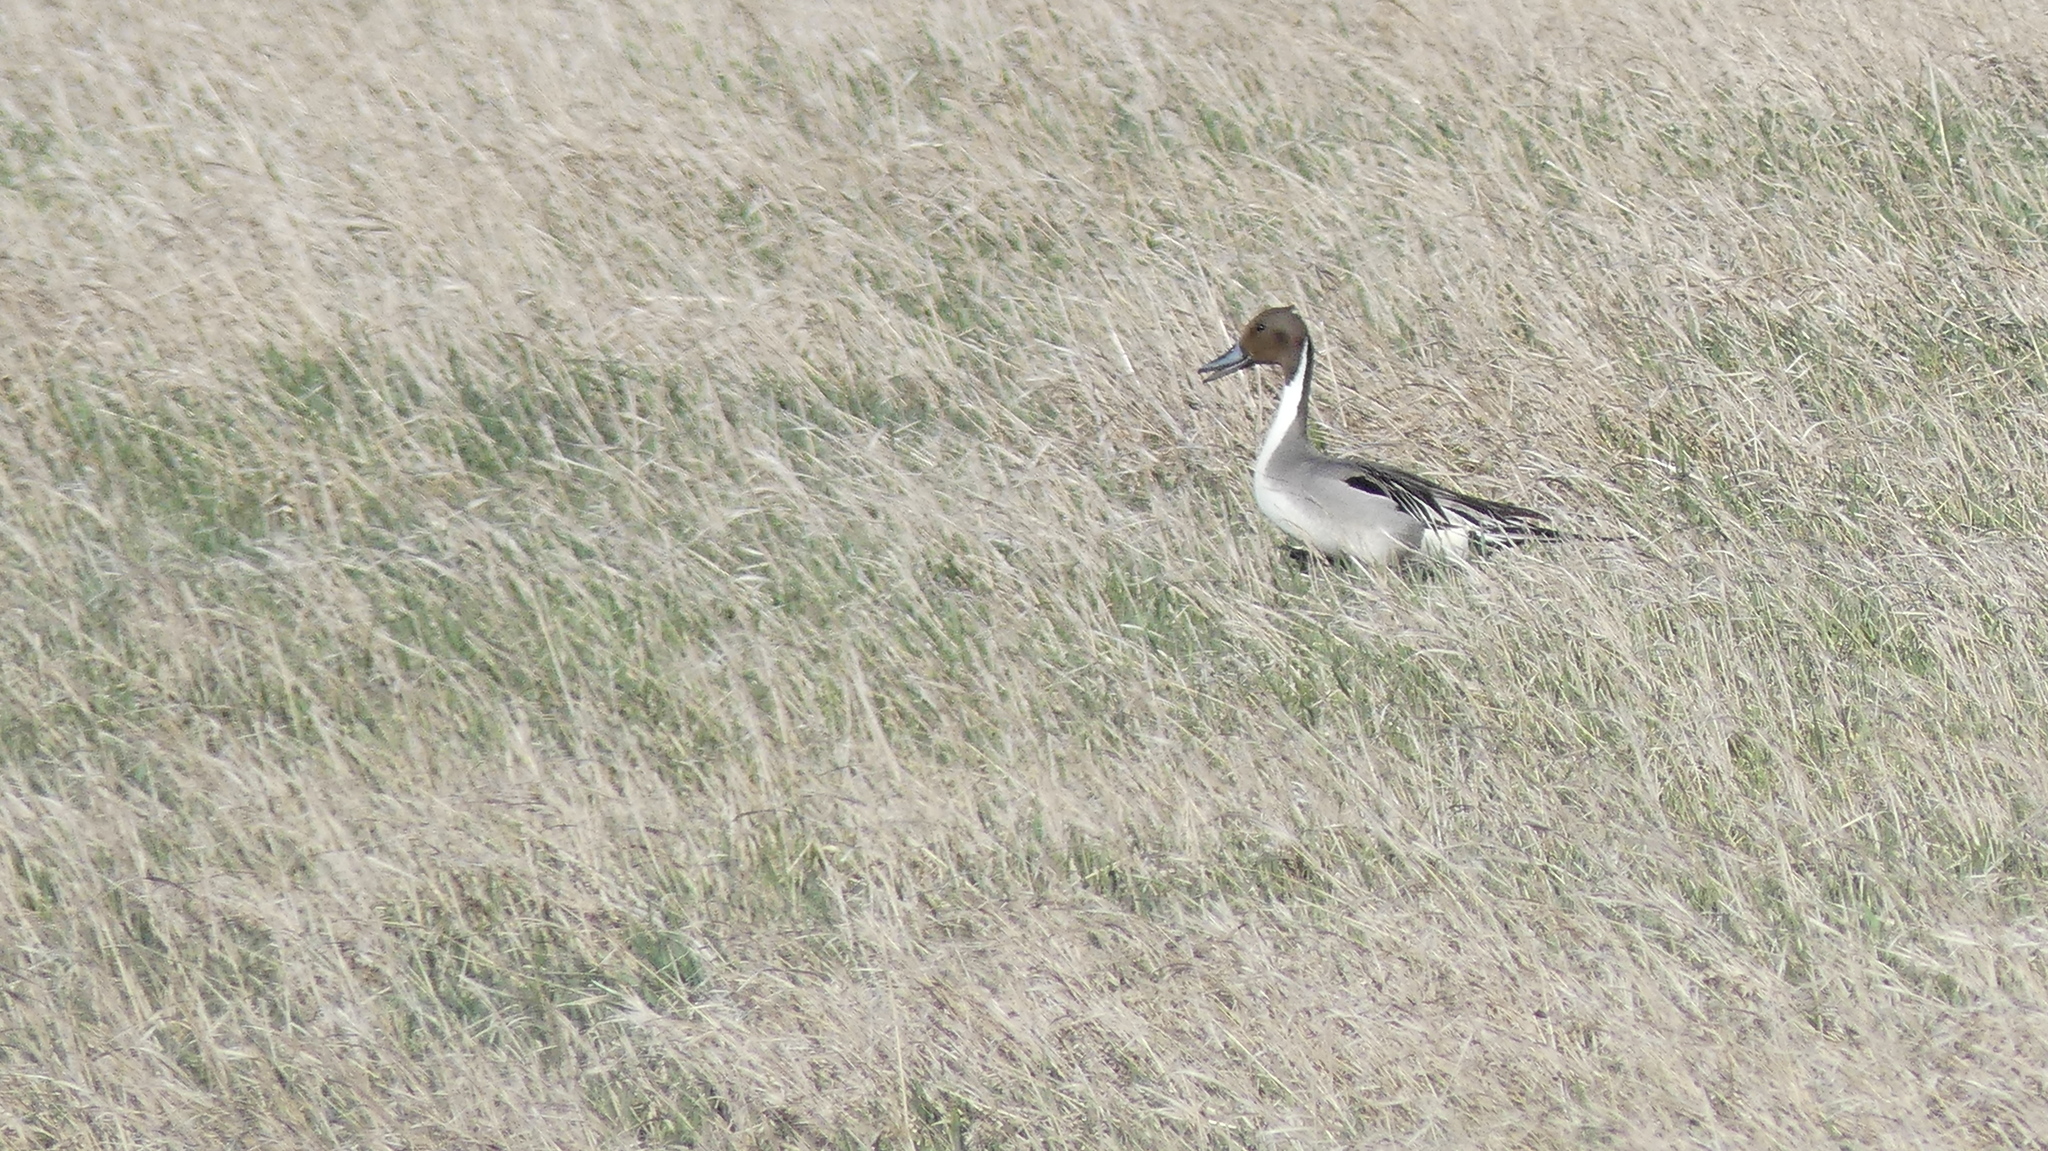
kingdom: Animalia
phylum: Chordata
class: Aves
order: Anseriformes
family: Anatidae
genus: Anas
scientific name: Anas acuta
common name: Northern pintail
